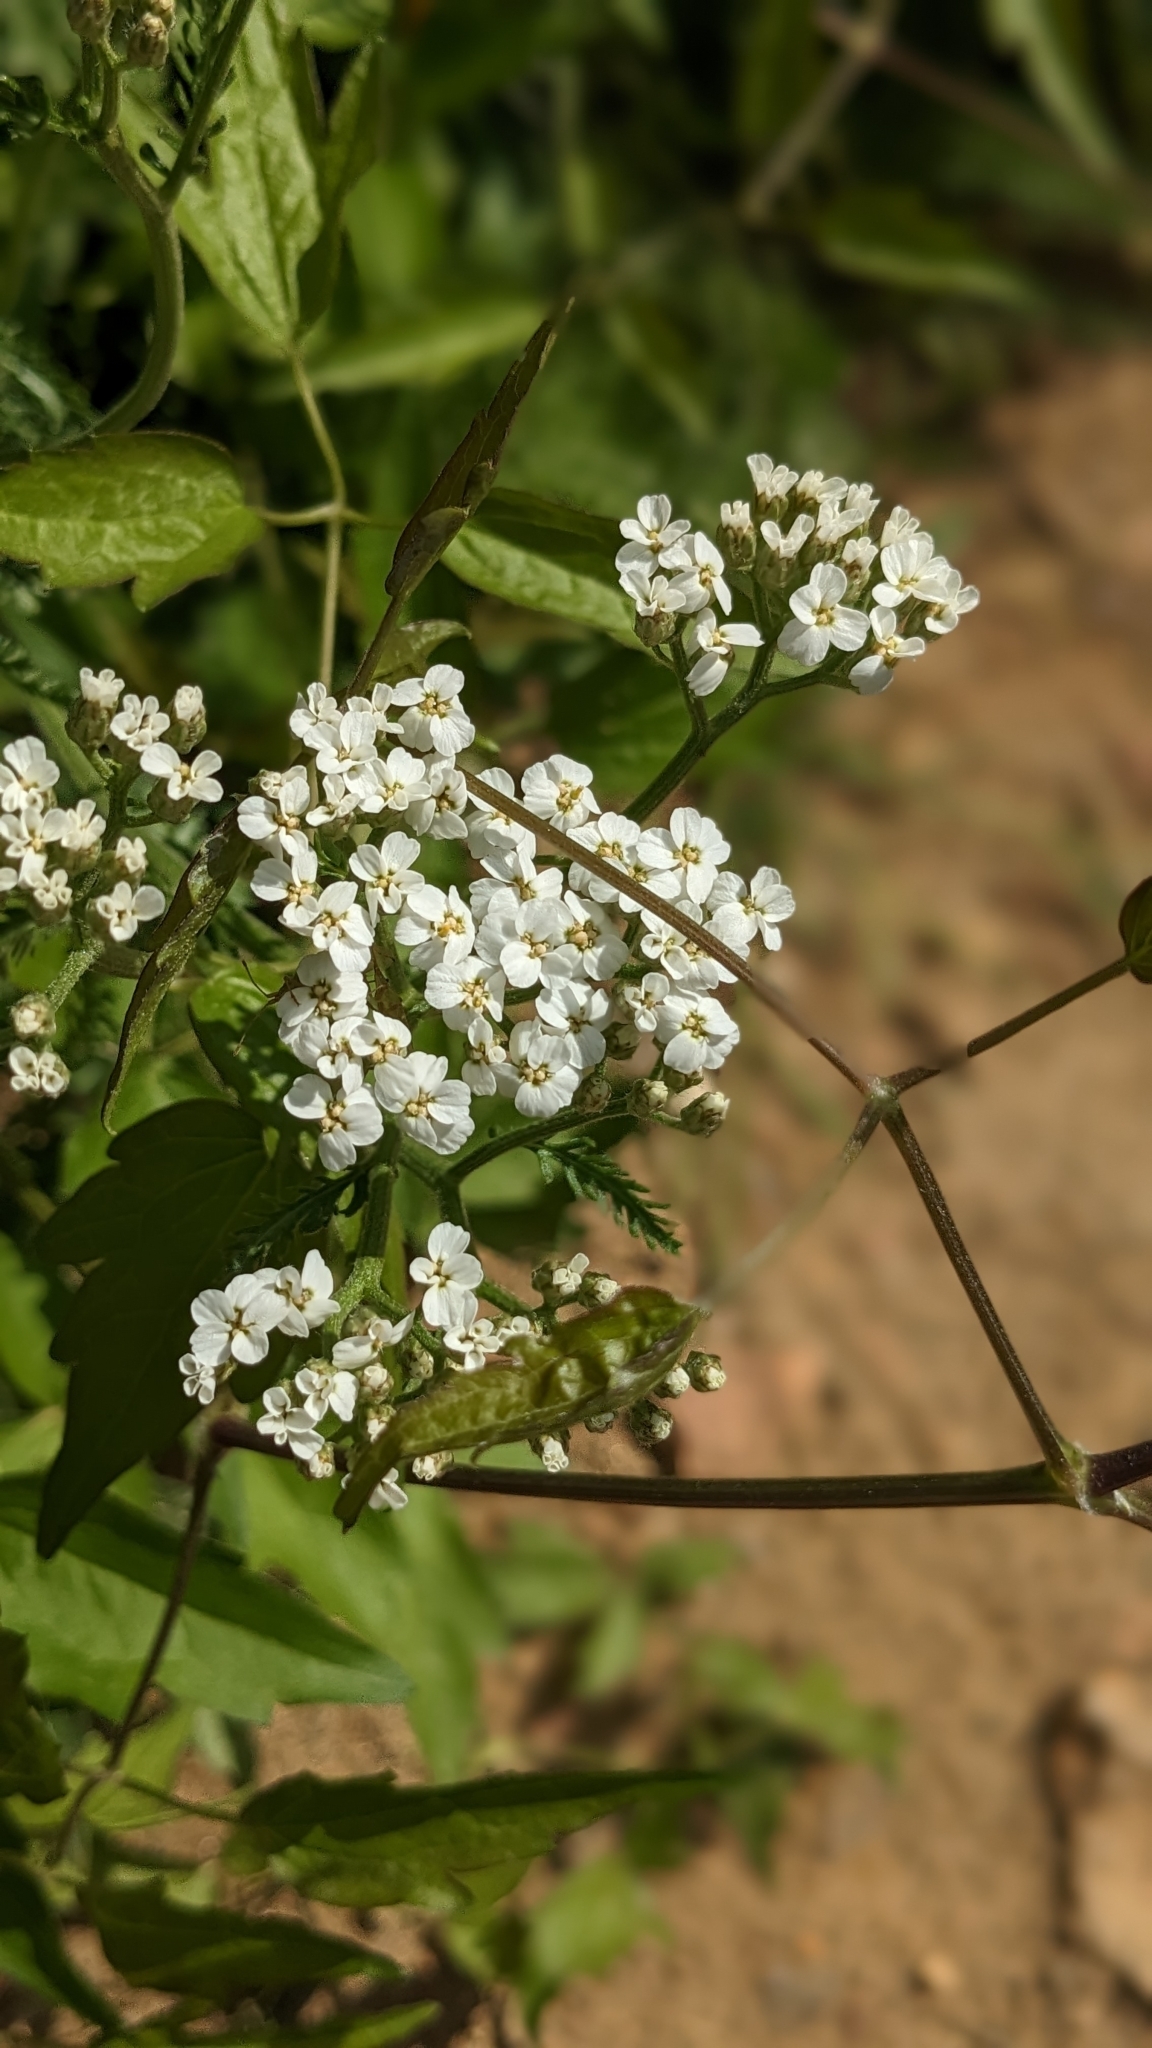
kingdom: Plantae
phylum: Tracheophyta
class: Magnoliopsida
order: Asterales
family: Asteraceae
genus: Achillea
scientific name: Achillea millefolium
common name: Yarrow
